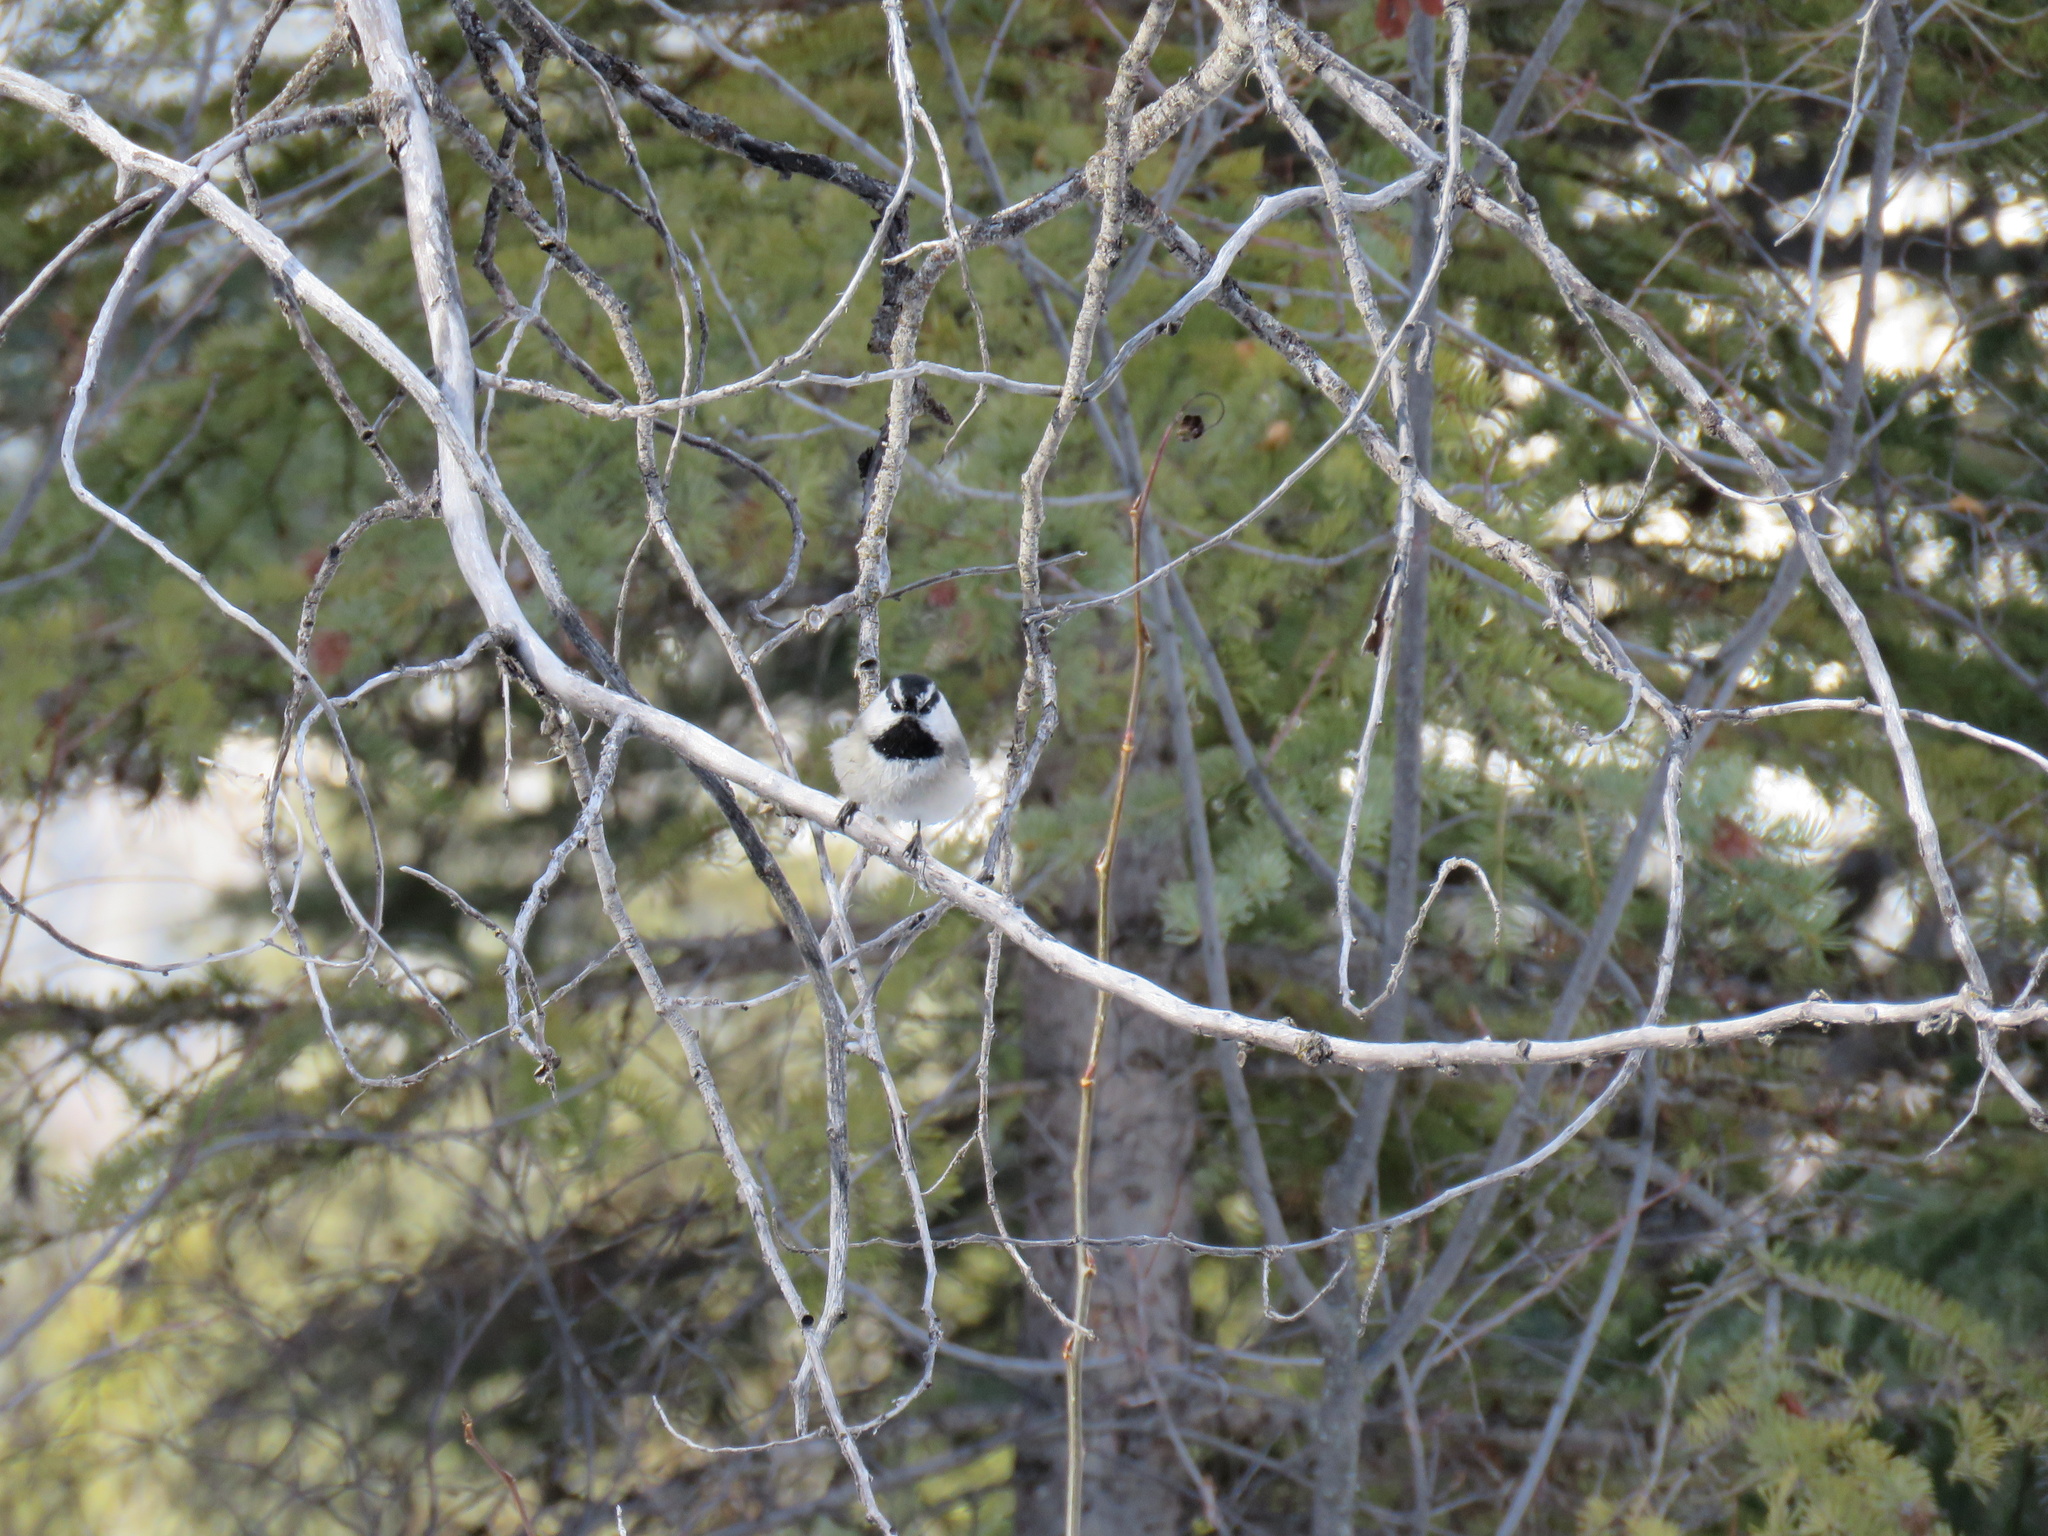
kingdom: Animalia
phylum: Chordata
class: Aves
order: Passeriformes
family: Paridae
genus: Poecile
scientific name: Poecile gambeli
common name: Mountain chickadee
